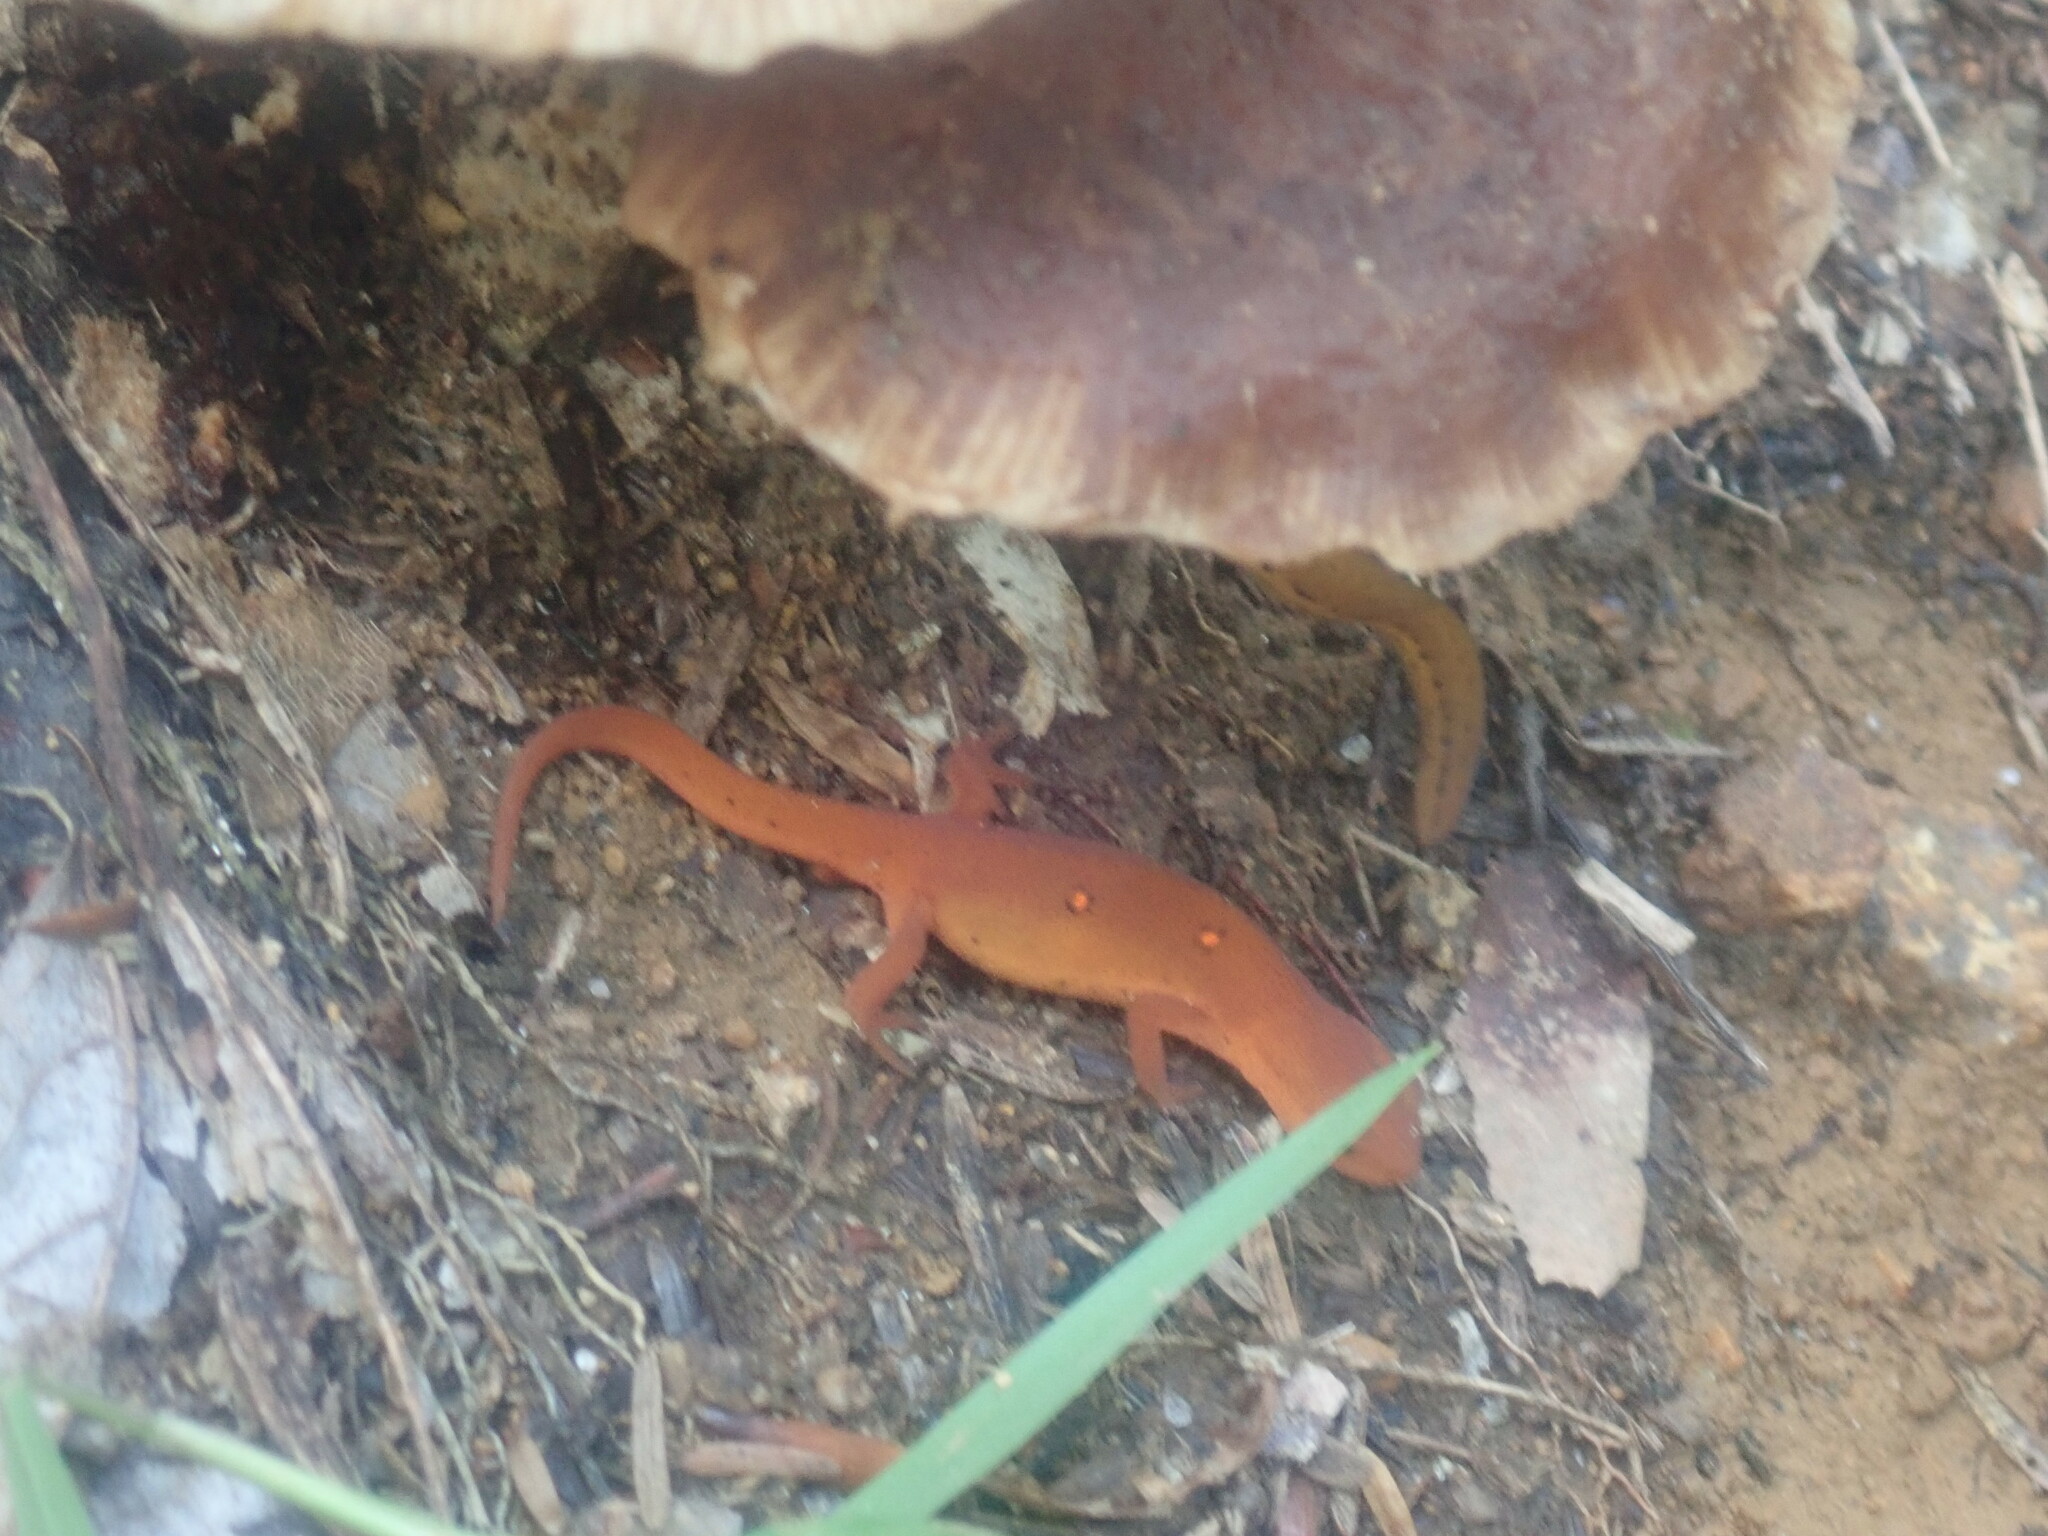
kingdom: Animalia
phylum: Chordata
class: Amphibia
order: Caudata
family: Salamandridae
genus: Notophthalmus
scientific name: Notophthalmus viridescens
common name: Eastern newt
